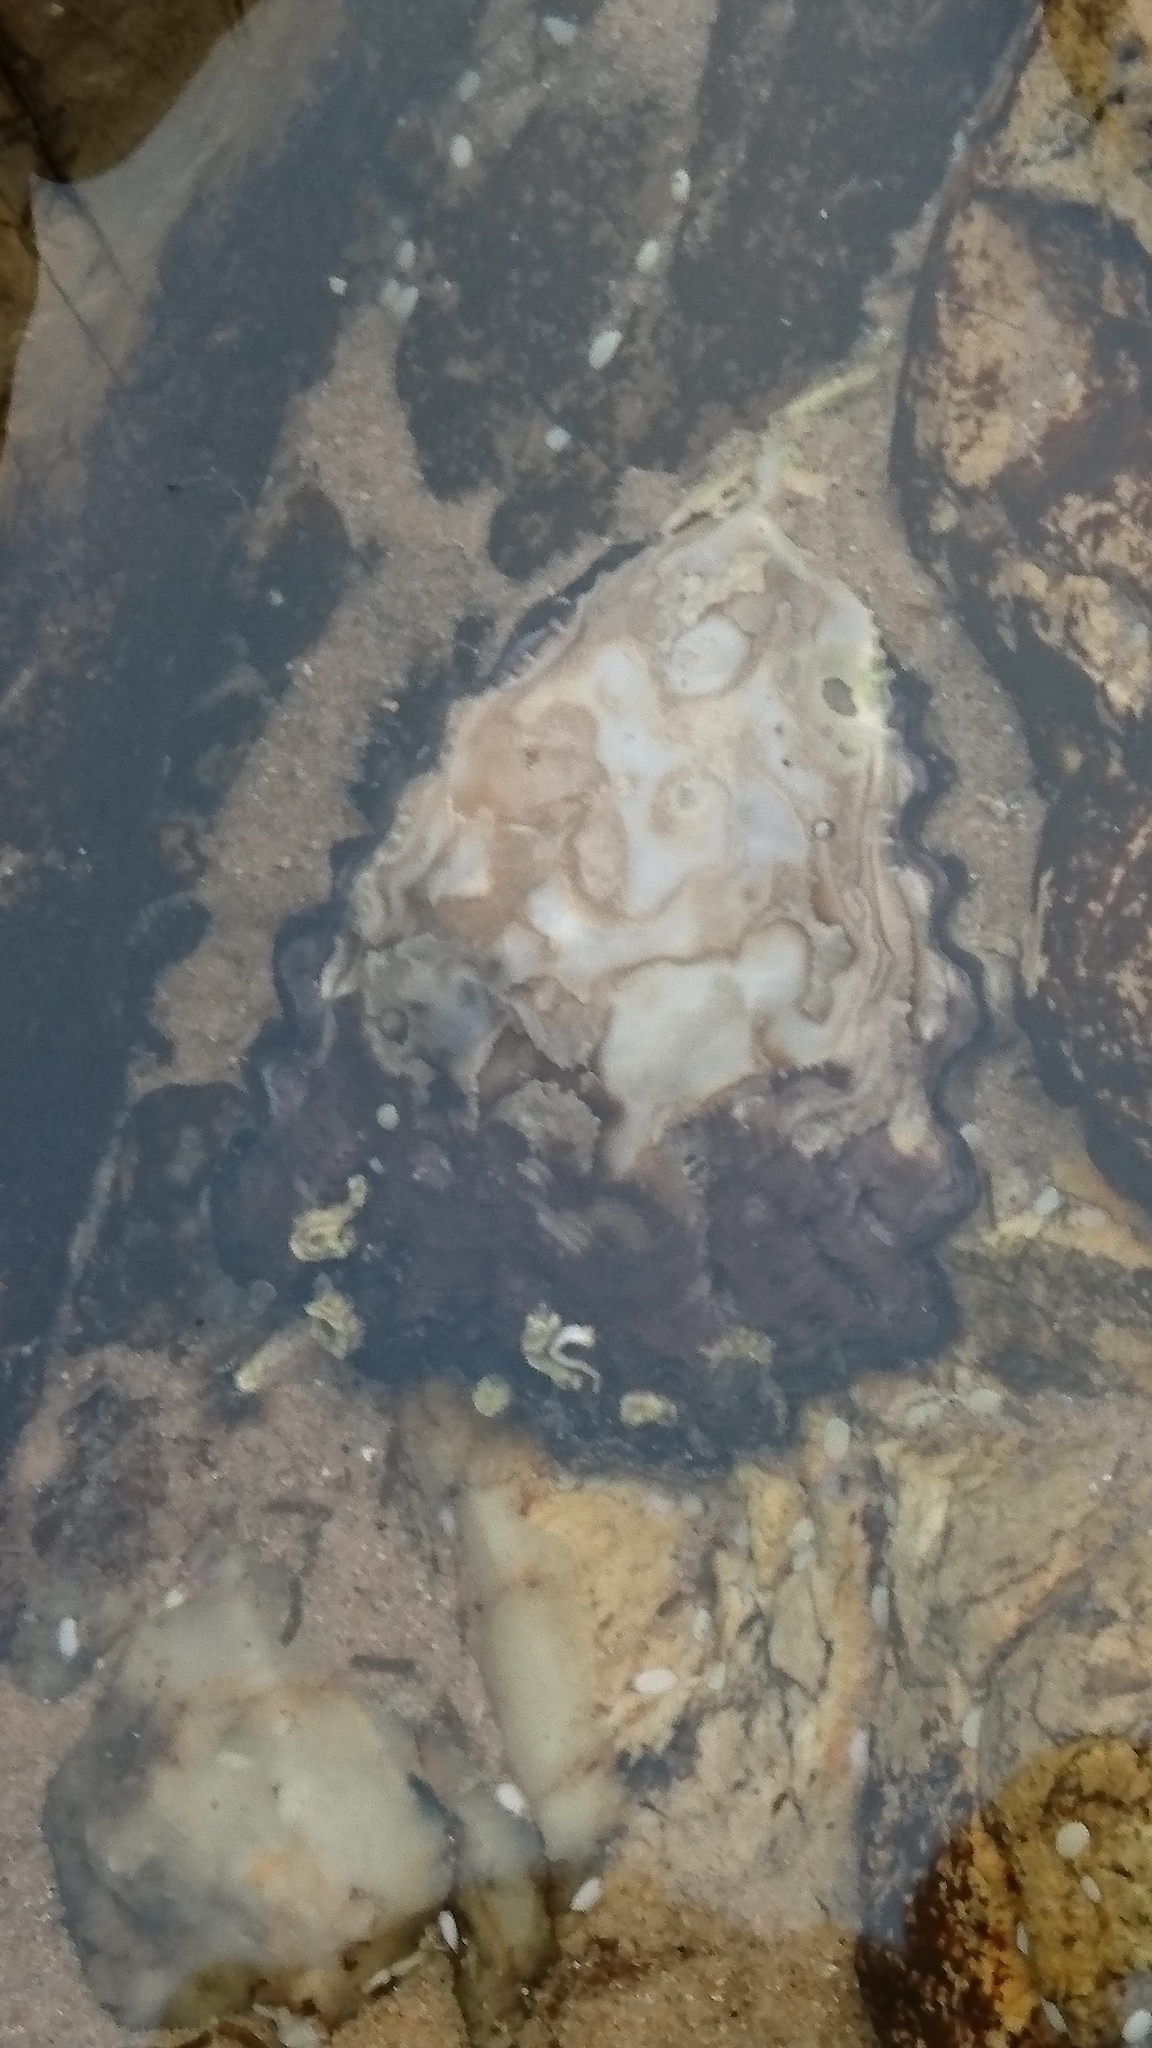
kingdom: Animalia
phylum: Mollusca
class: Bivalvia
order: Ostreida
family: Ostreidae
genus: Saccostrea
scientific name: Saccostrea glomerata
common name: Sydney cupped oyster
